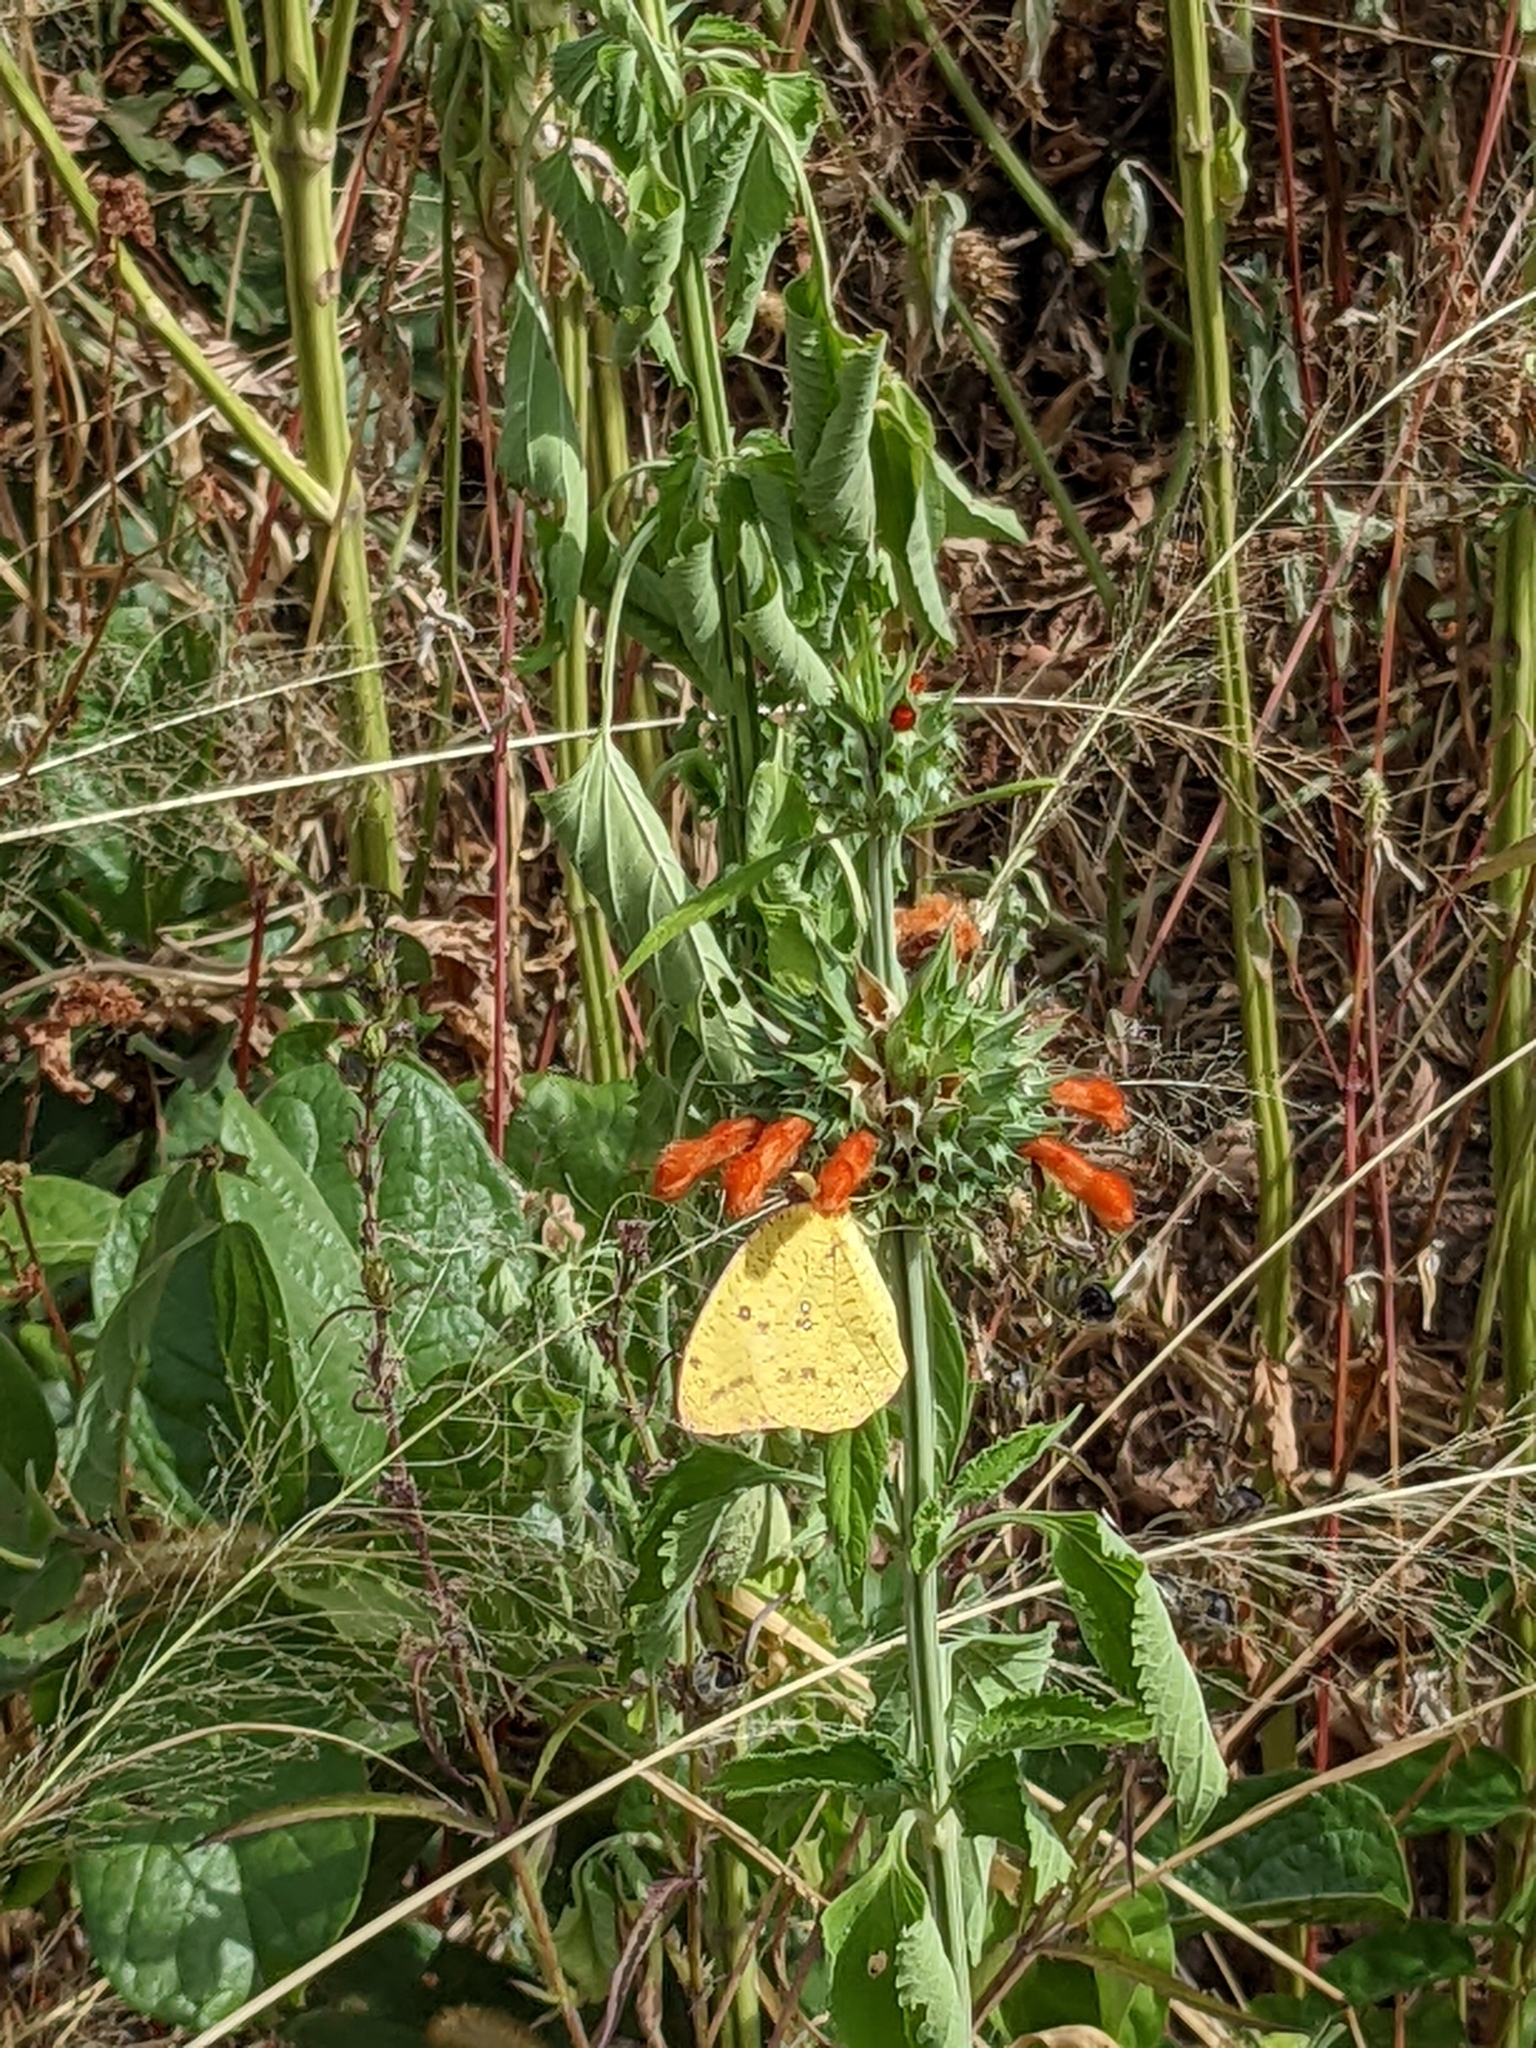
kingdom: Plantae
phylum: Tracheophyta
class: Magnoliopsida
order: Lamiales
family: Lamiaceae
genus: Leonotis
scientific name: Leonotis nepetifolia
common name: Christmas candlestick
